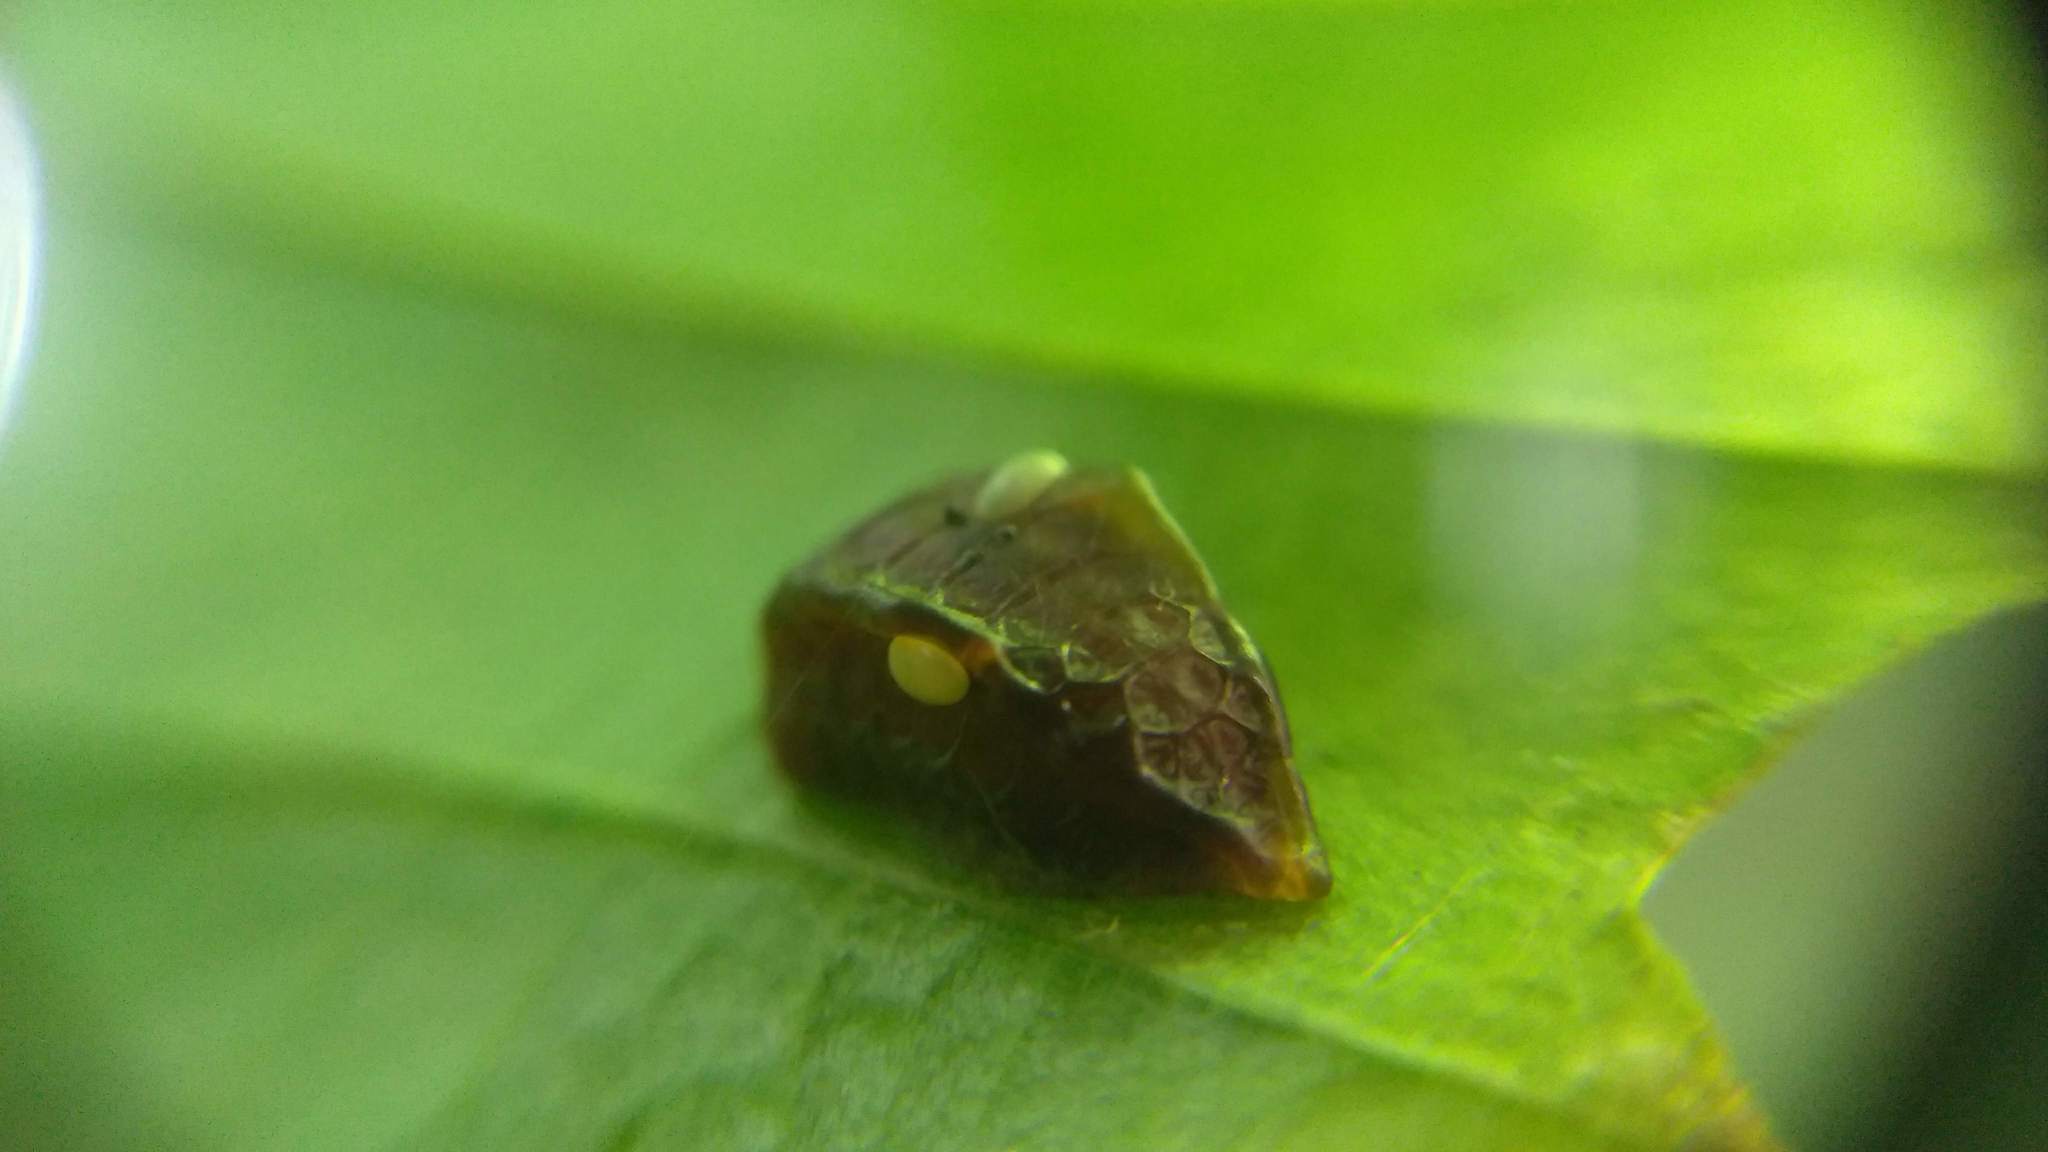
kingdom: Animalia
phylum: Arthropoda
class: Insecta
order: Lepidoptera
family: Limacodidae
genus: Prolimacodes
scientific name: Prolimacodes badia
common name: Skiff moth
